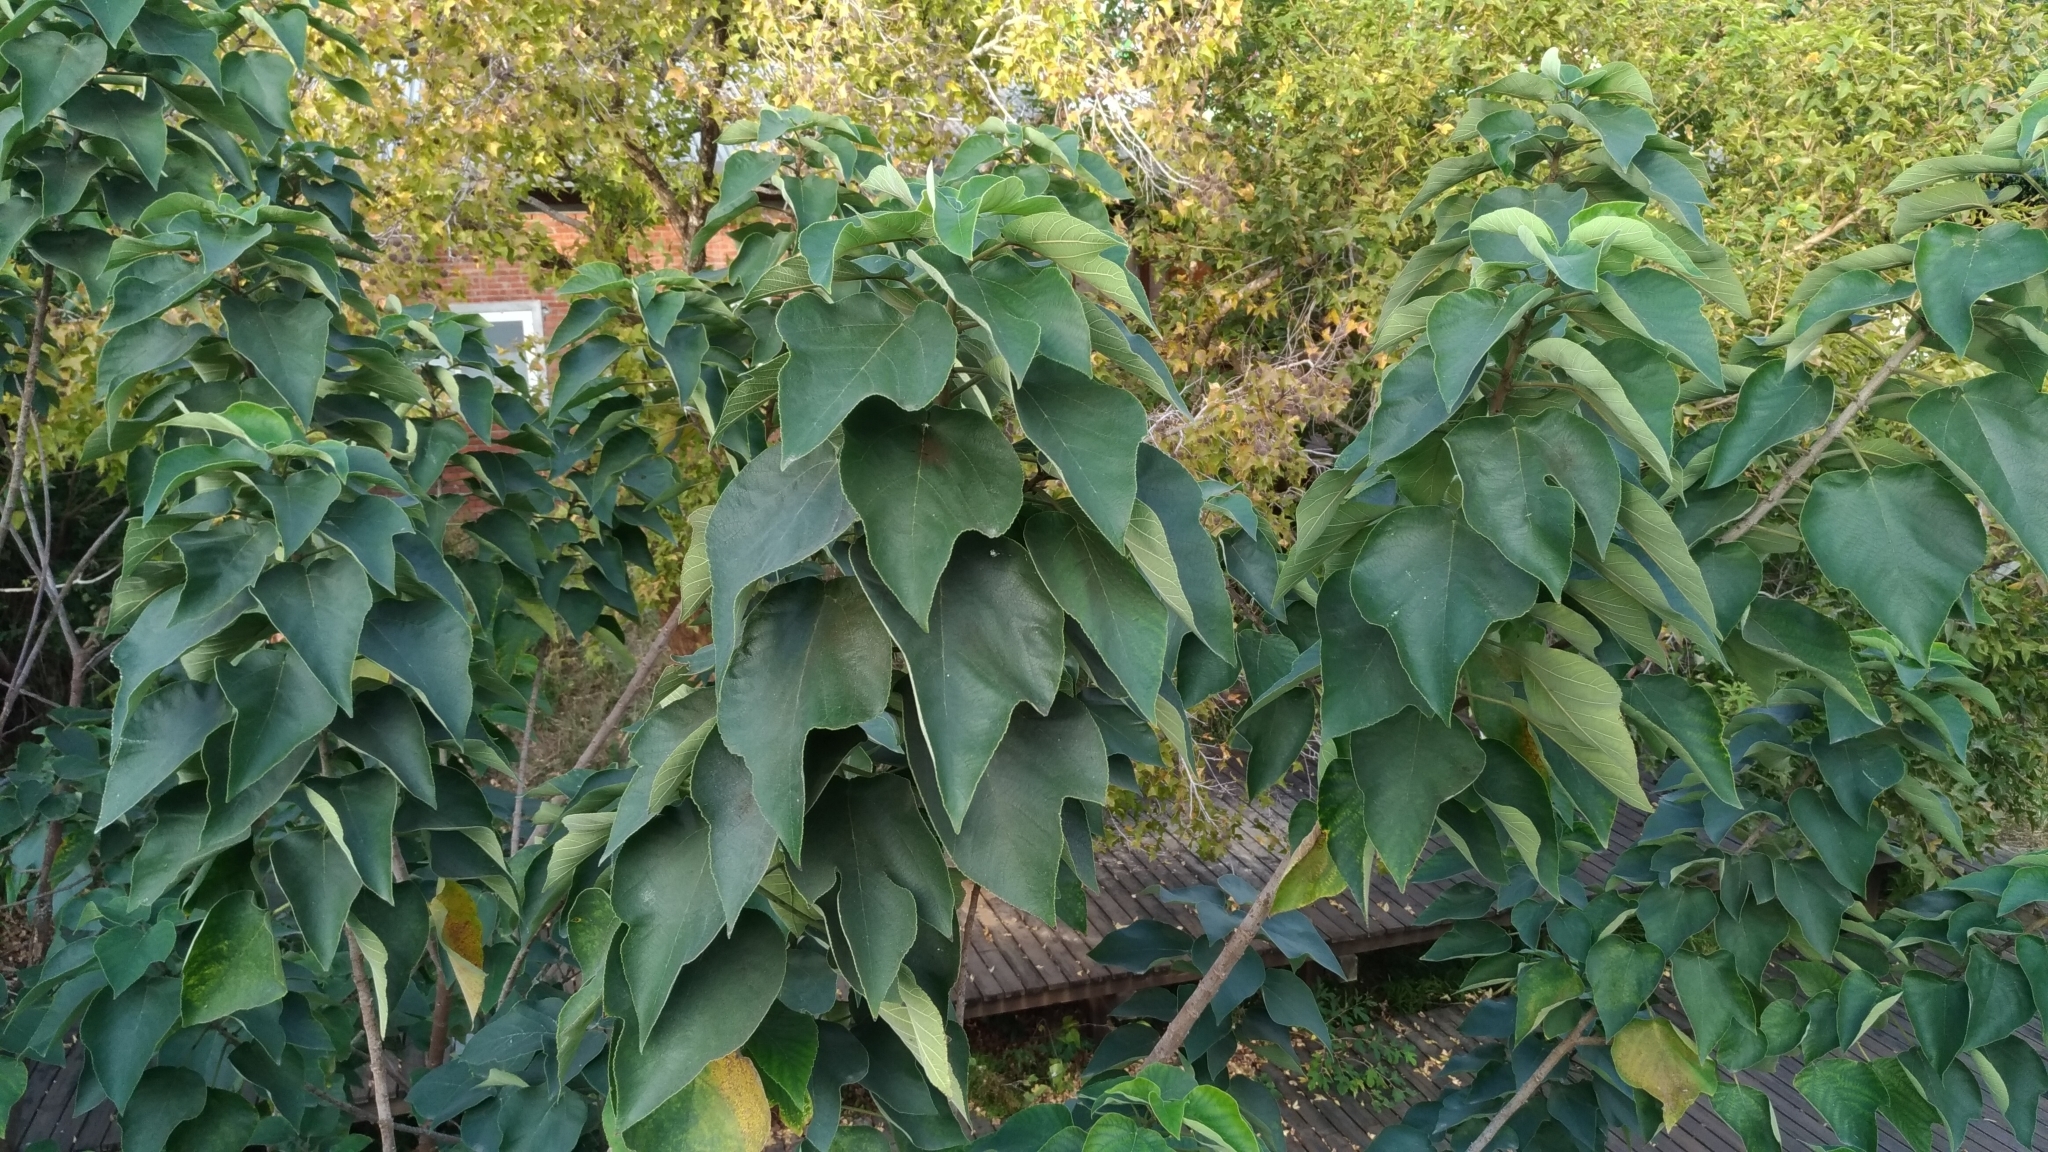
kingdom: Plantae
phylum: Tracheophyta
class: Magnoliopsida
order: Rosales
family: Moraceae
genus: Broussonetia
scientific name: Broussonetia papyrifera
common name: Paper mulberry
